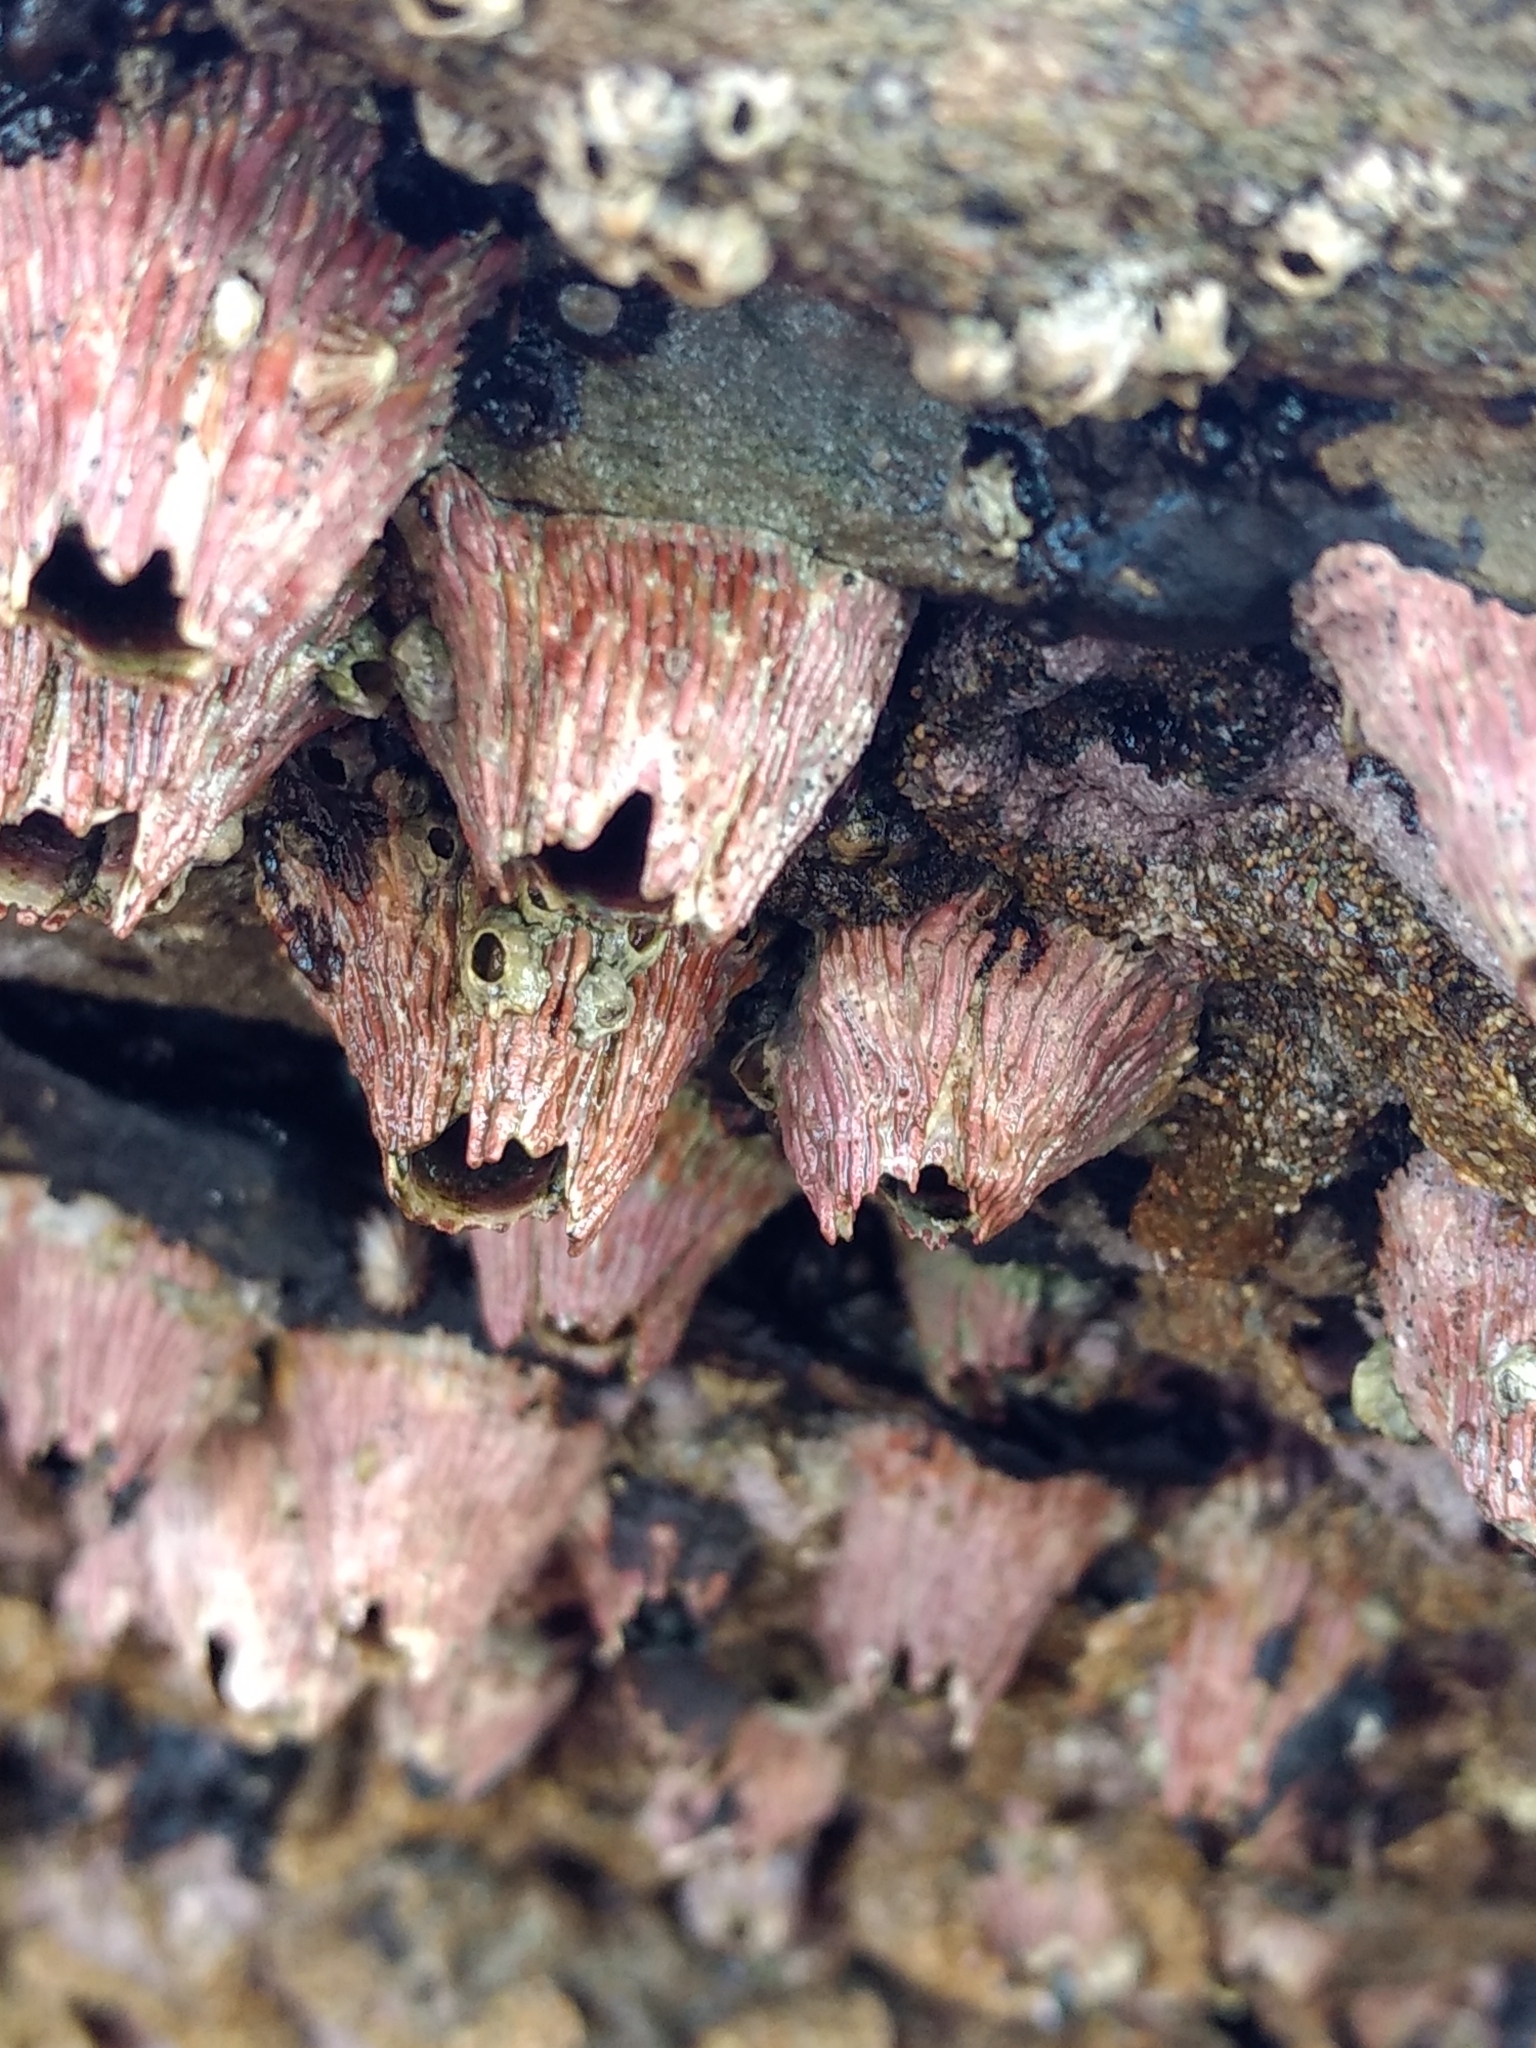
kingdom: Animalia
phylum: Arthropoda
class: Maxillopoda
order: Sessilia
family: Tetraclitidae
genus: Tetraclita
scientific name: Tetraclita rubescens
